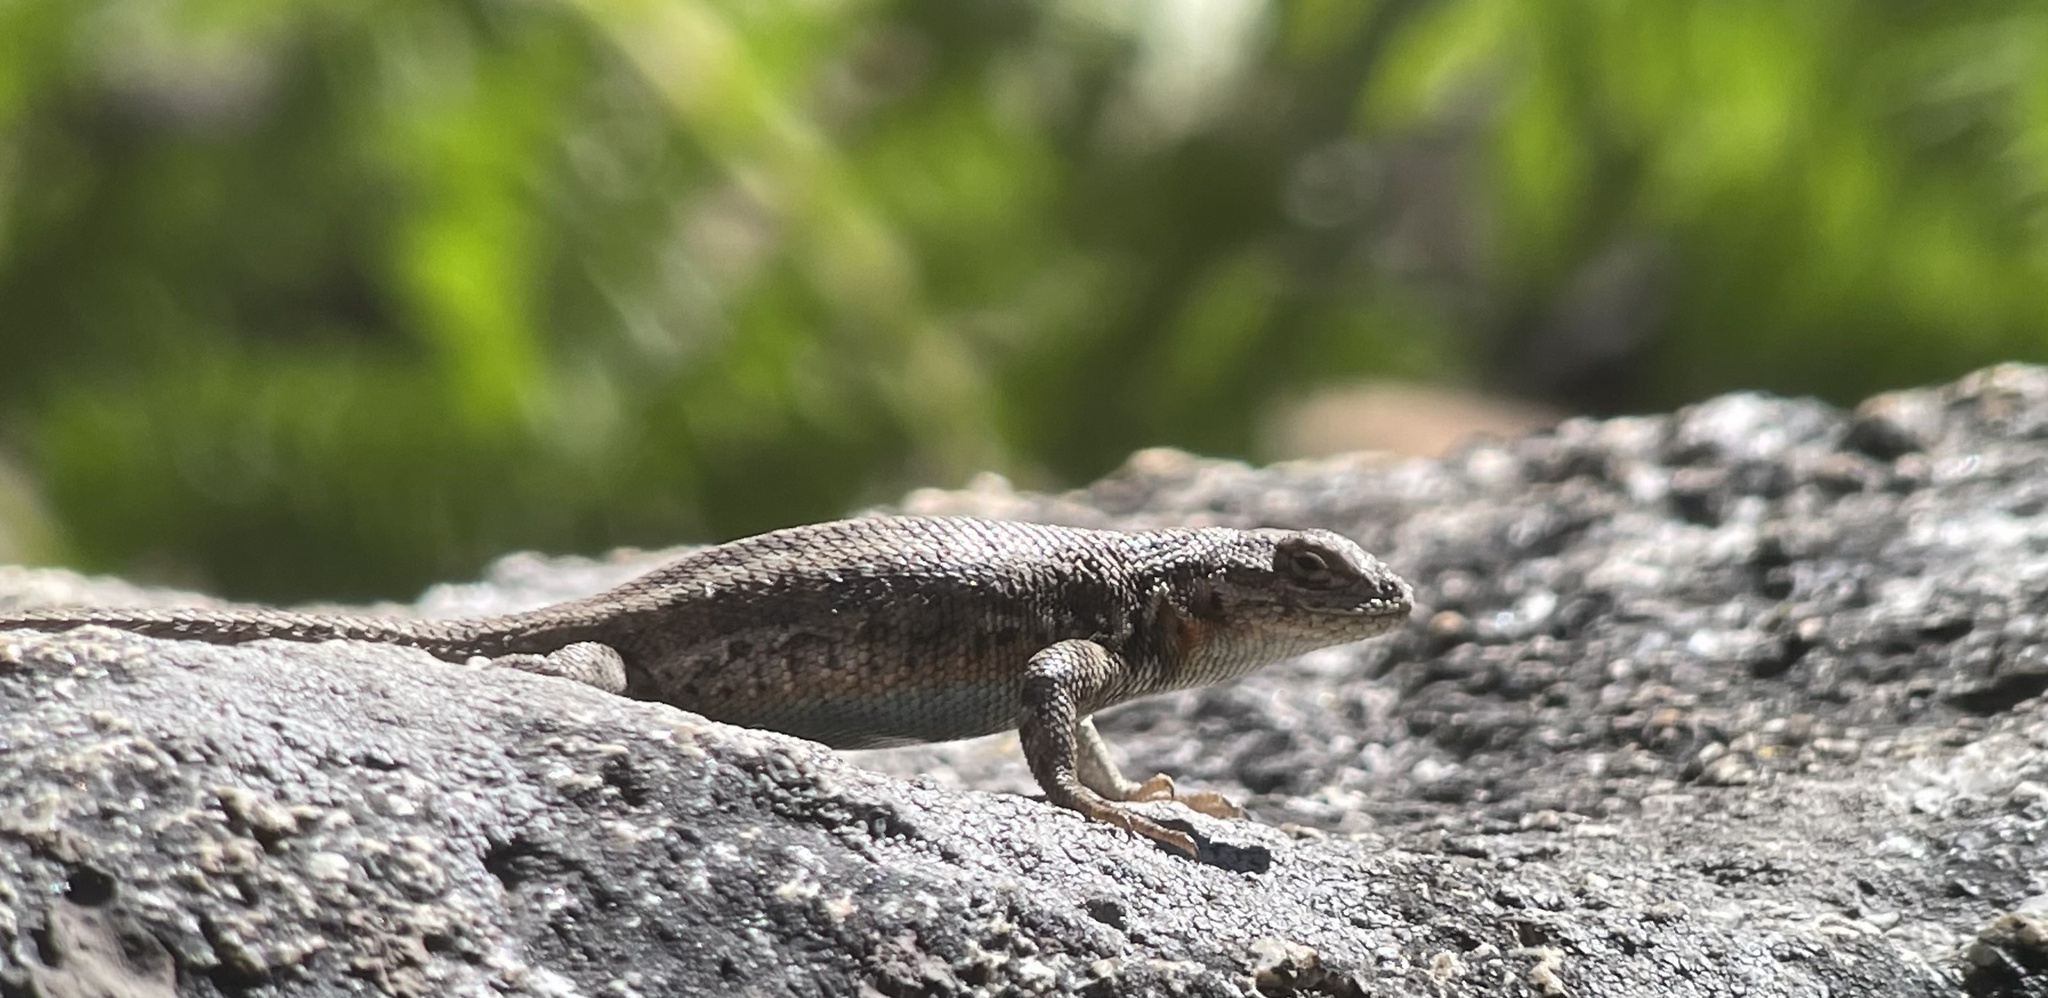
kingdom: Animalia
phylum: Chordata
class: Squamata
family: Phrynosomatidae
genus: Sceloporus
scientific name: Sceloporus graciosus
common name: Sagebrush lizard
